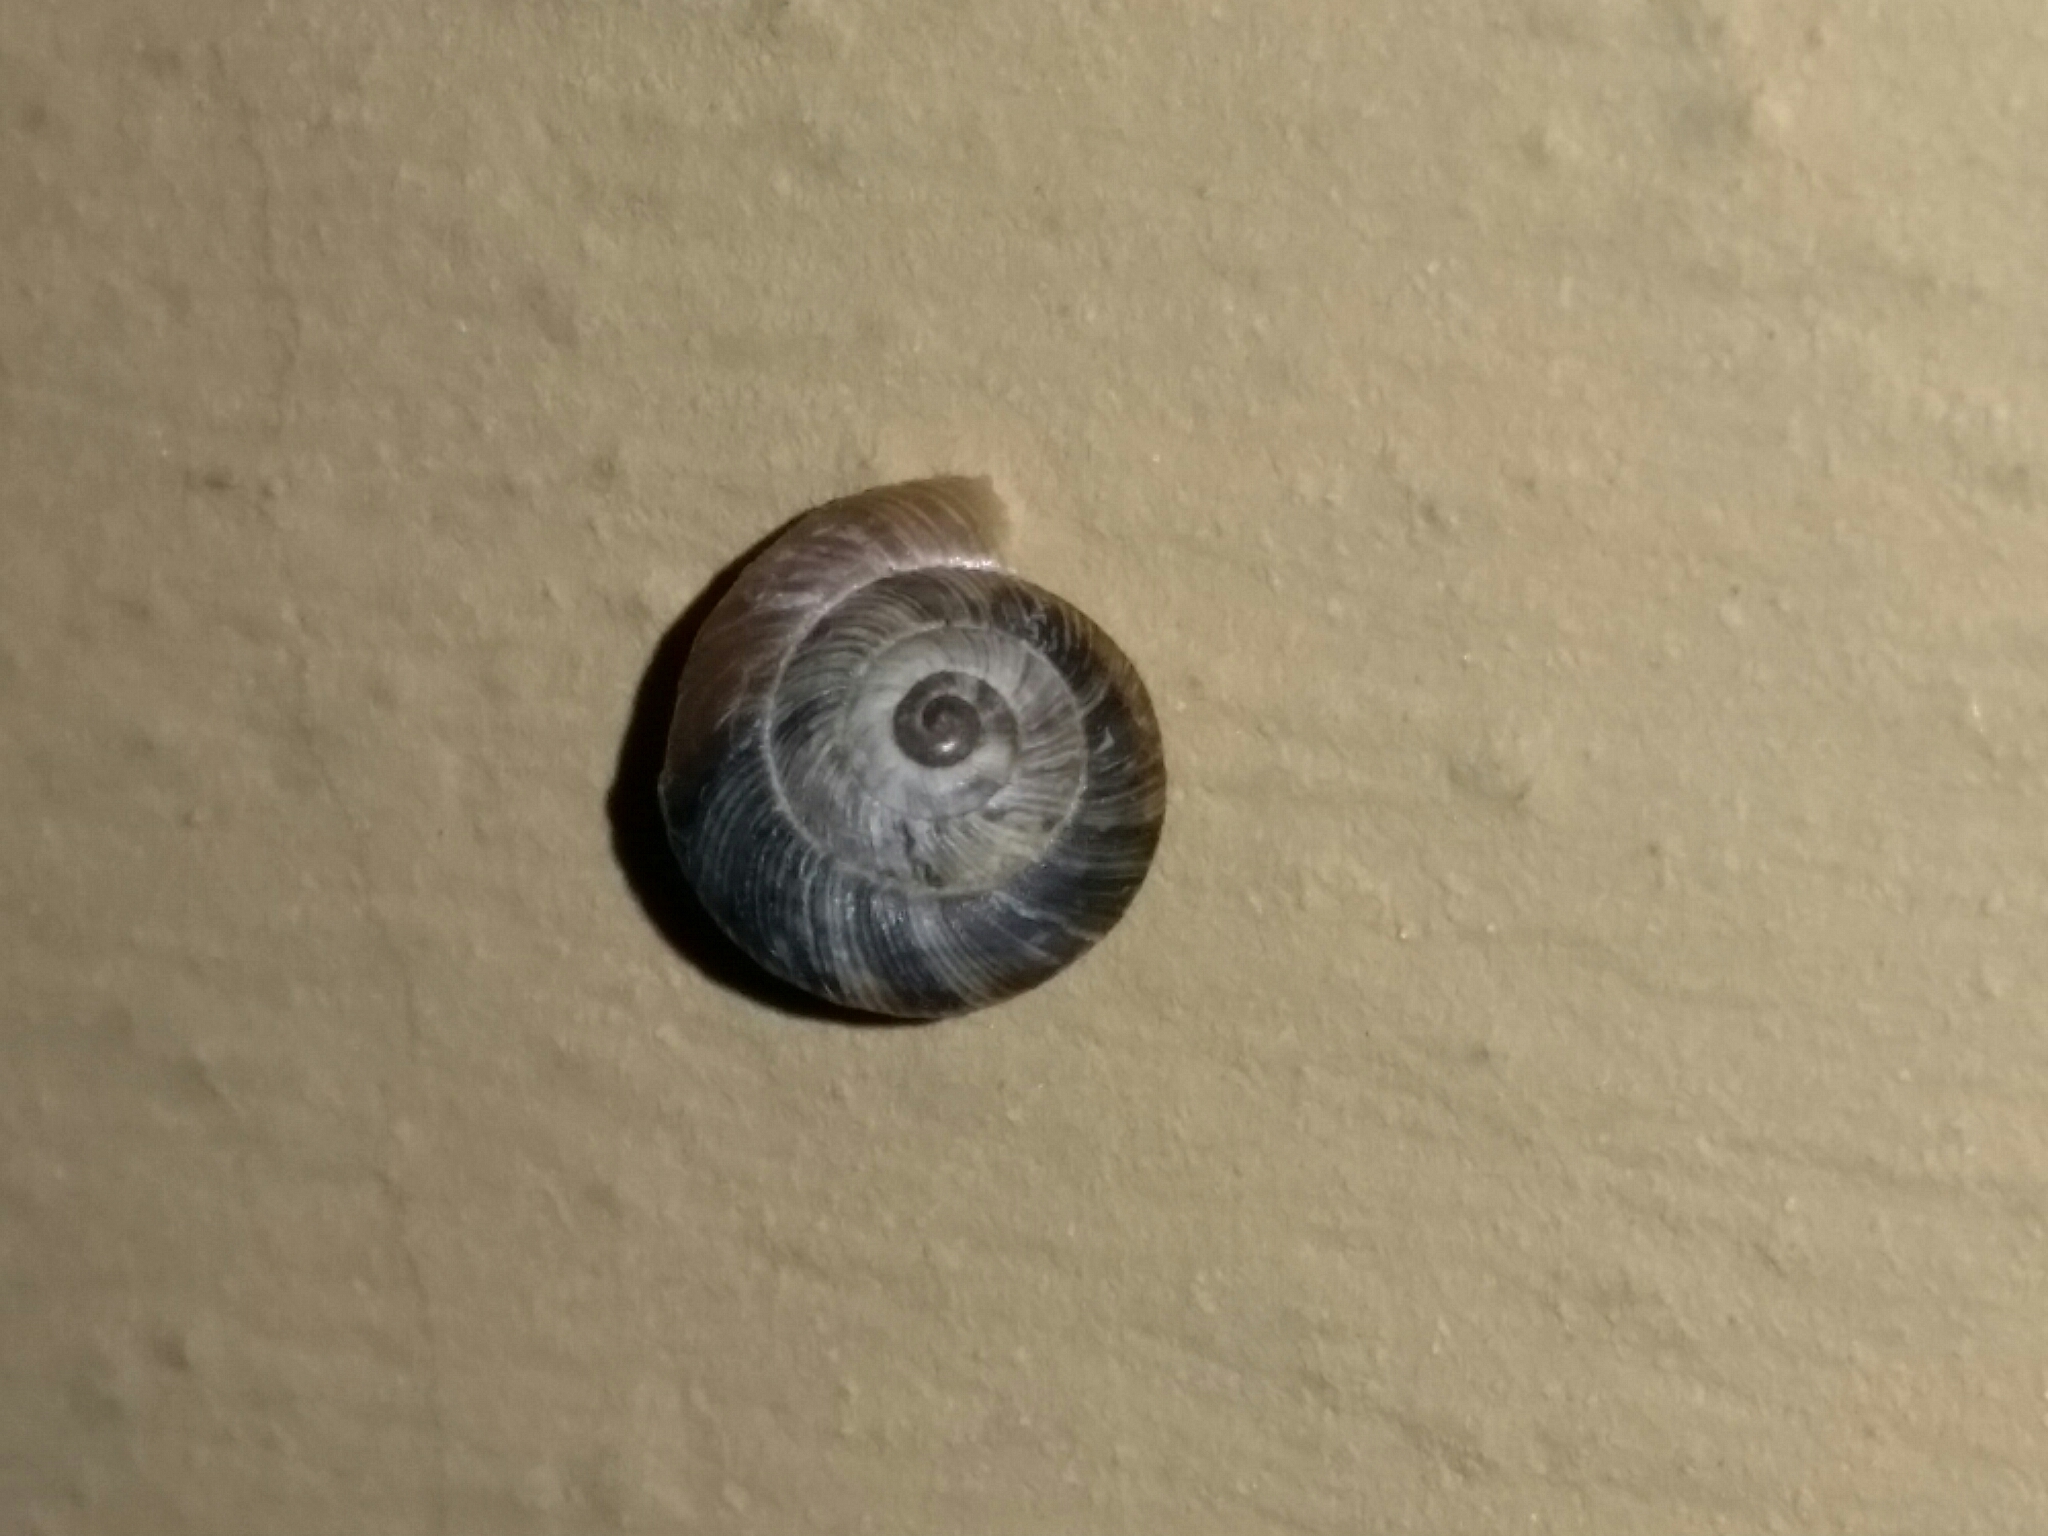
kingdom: Animalia
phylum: Mollusca
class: Gastropoda
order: Stylommatophora
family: Geomitridae
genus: Cernuella
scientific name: Cernuella cisalpina
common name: Maritime gardensnail
